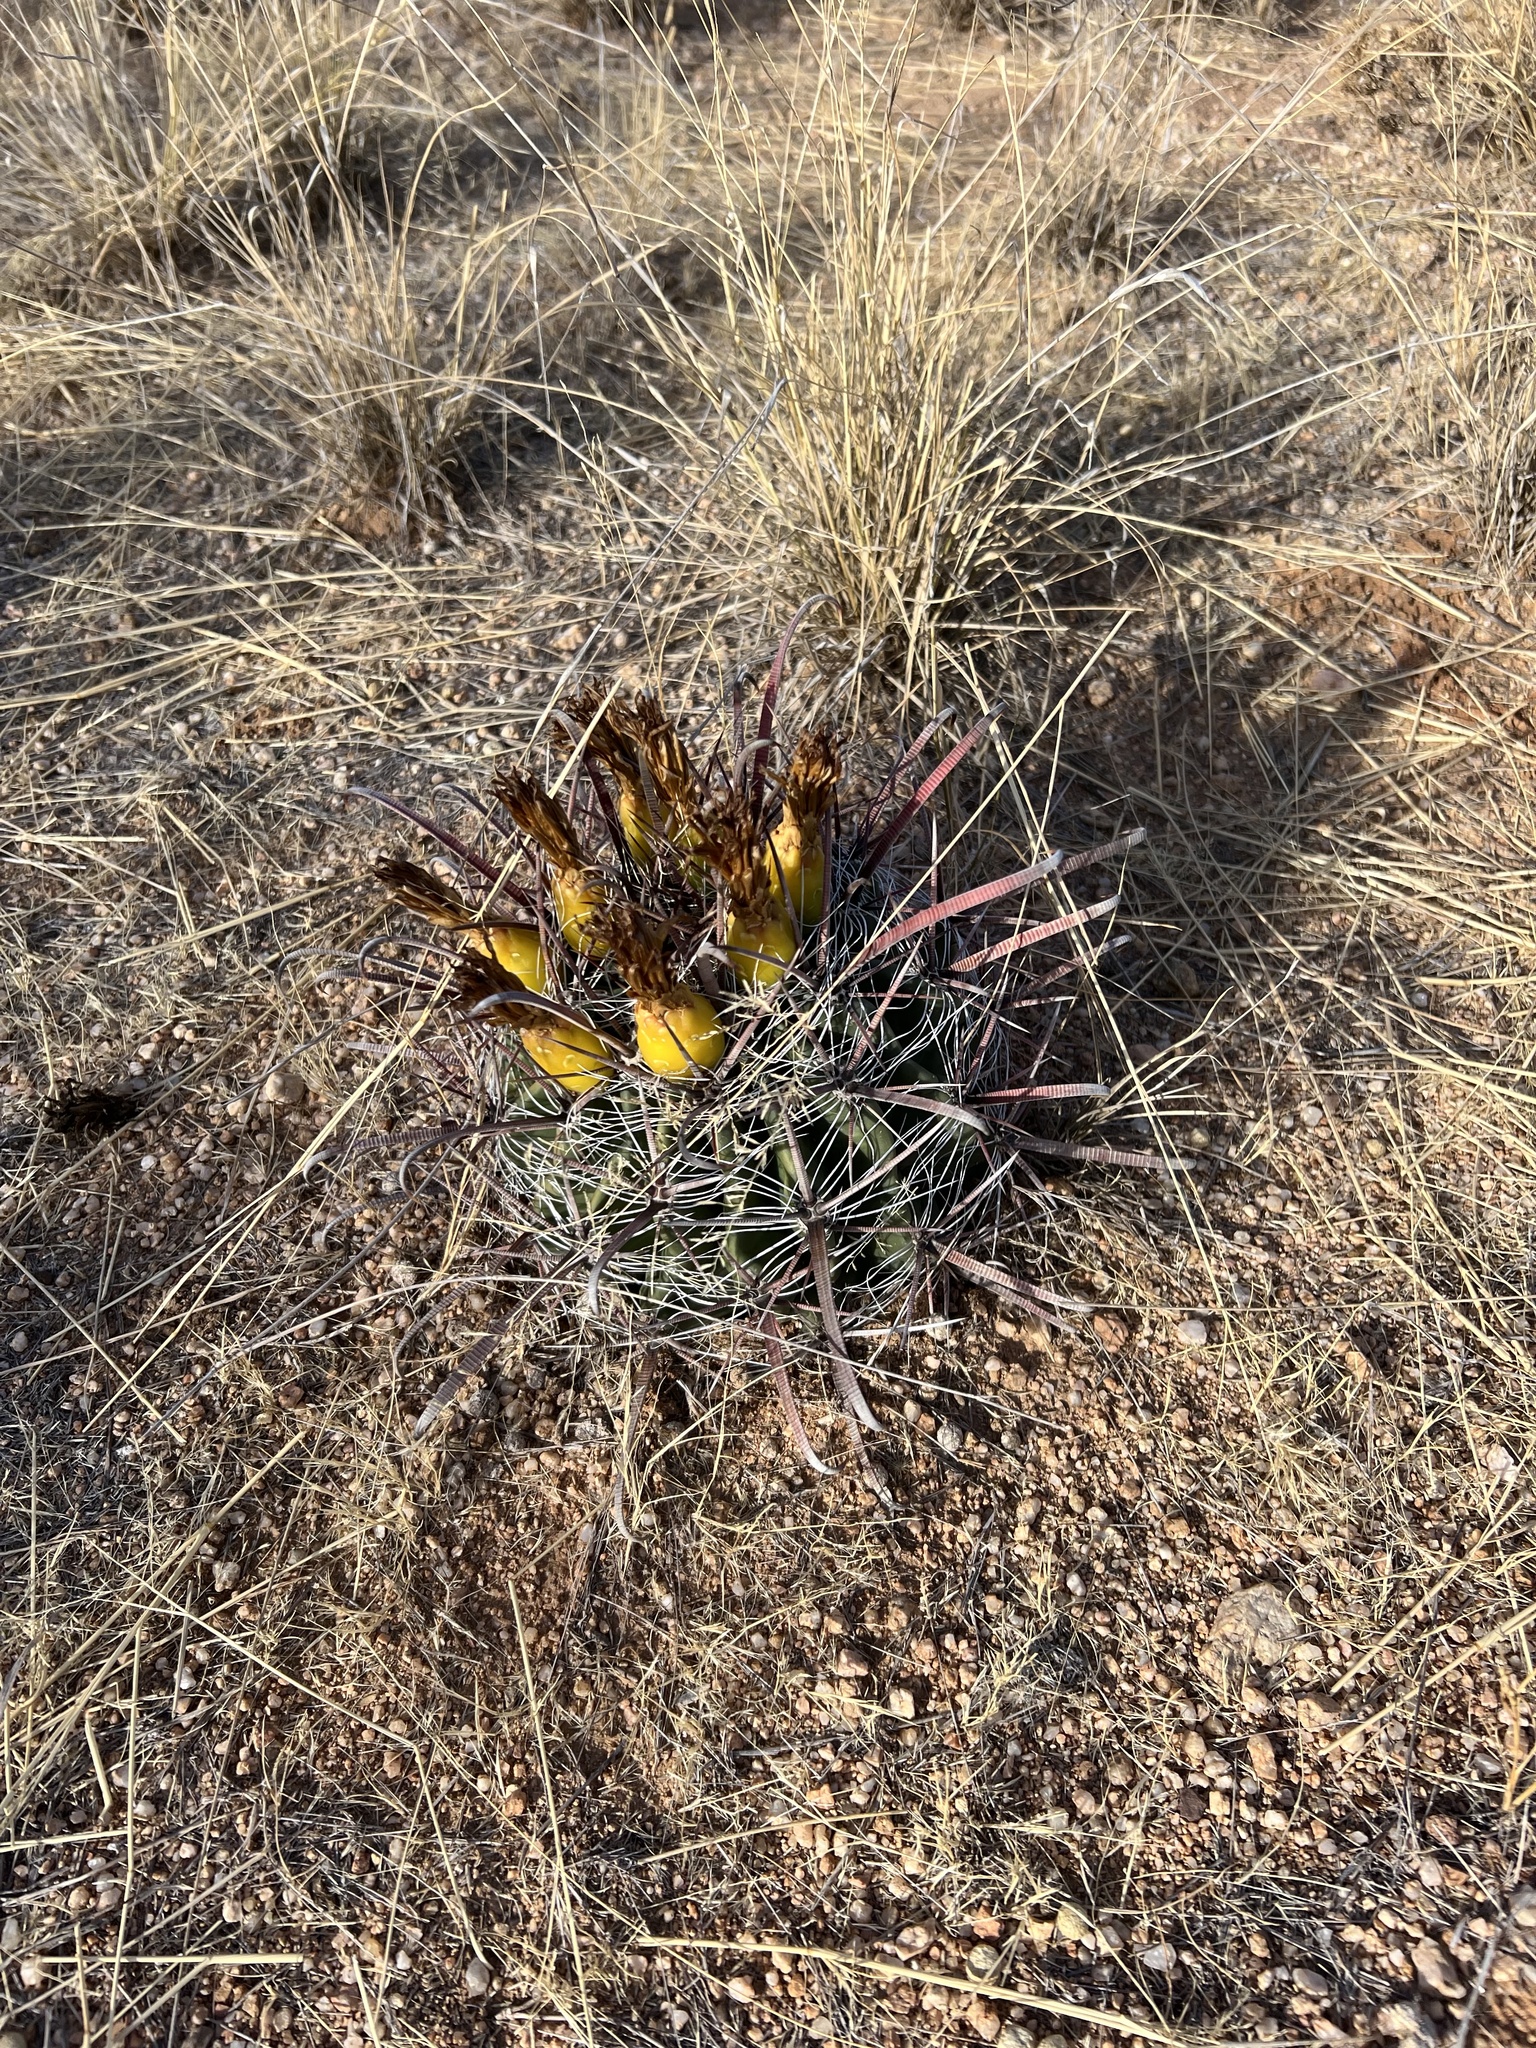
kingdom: Plantae
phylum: Tracheophyta
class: Magnoliopsida
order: Caryophyllales
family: Cactaceae
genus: Ferocactus
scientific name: Ferocactus wislizeni
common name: Candy barrel cactus
